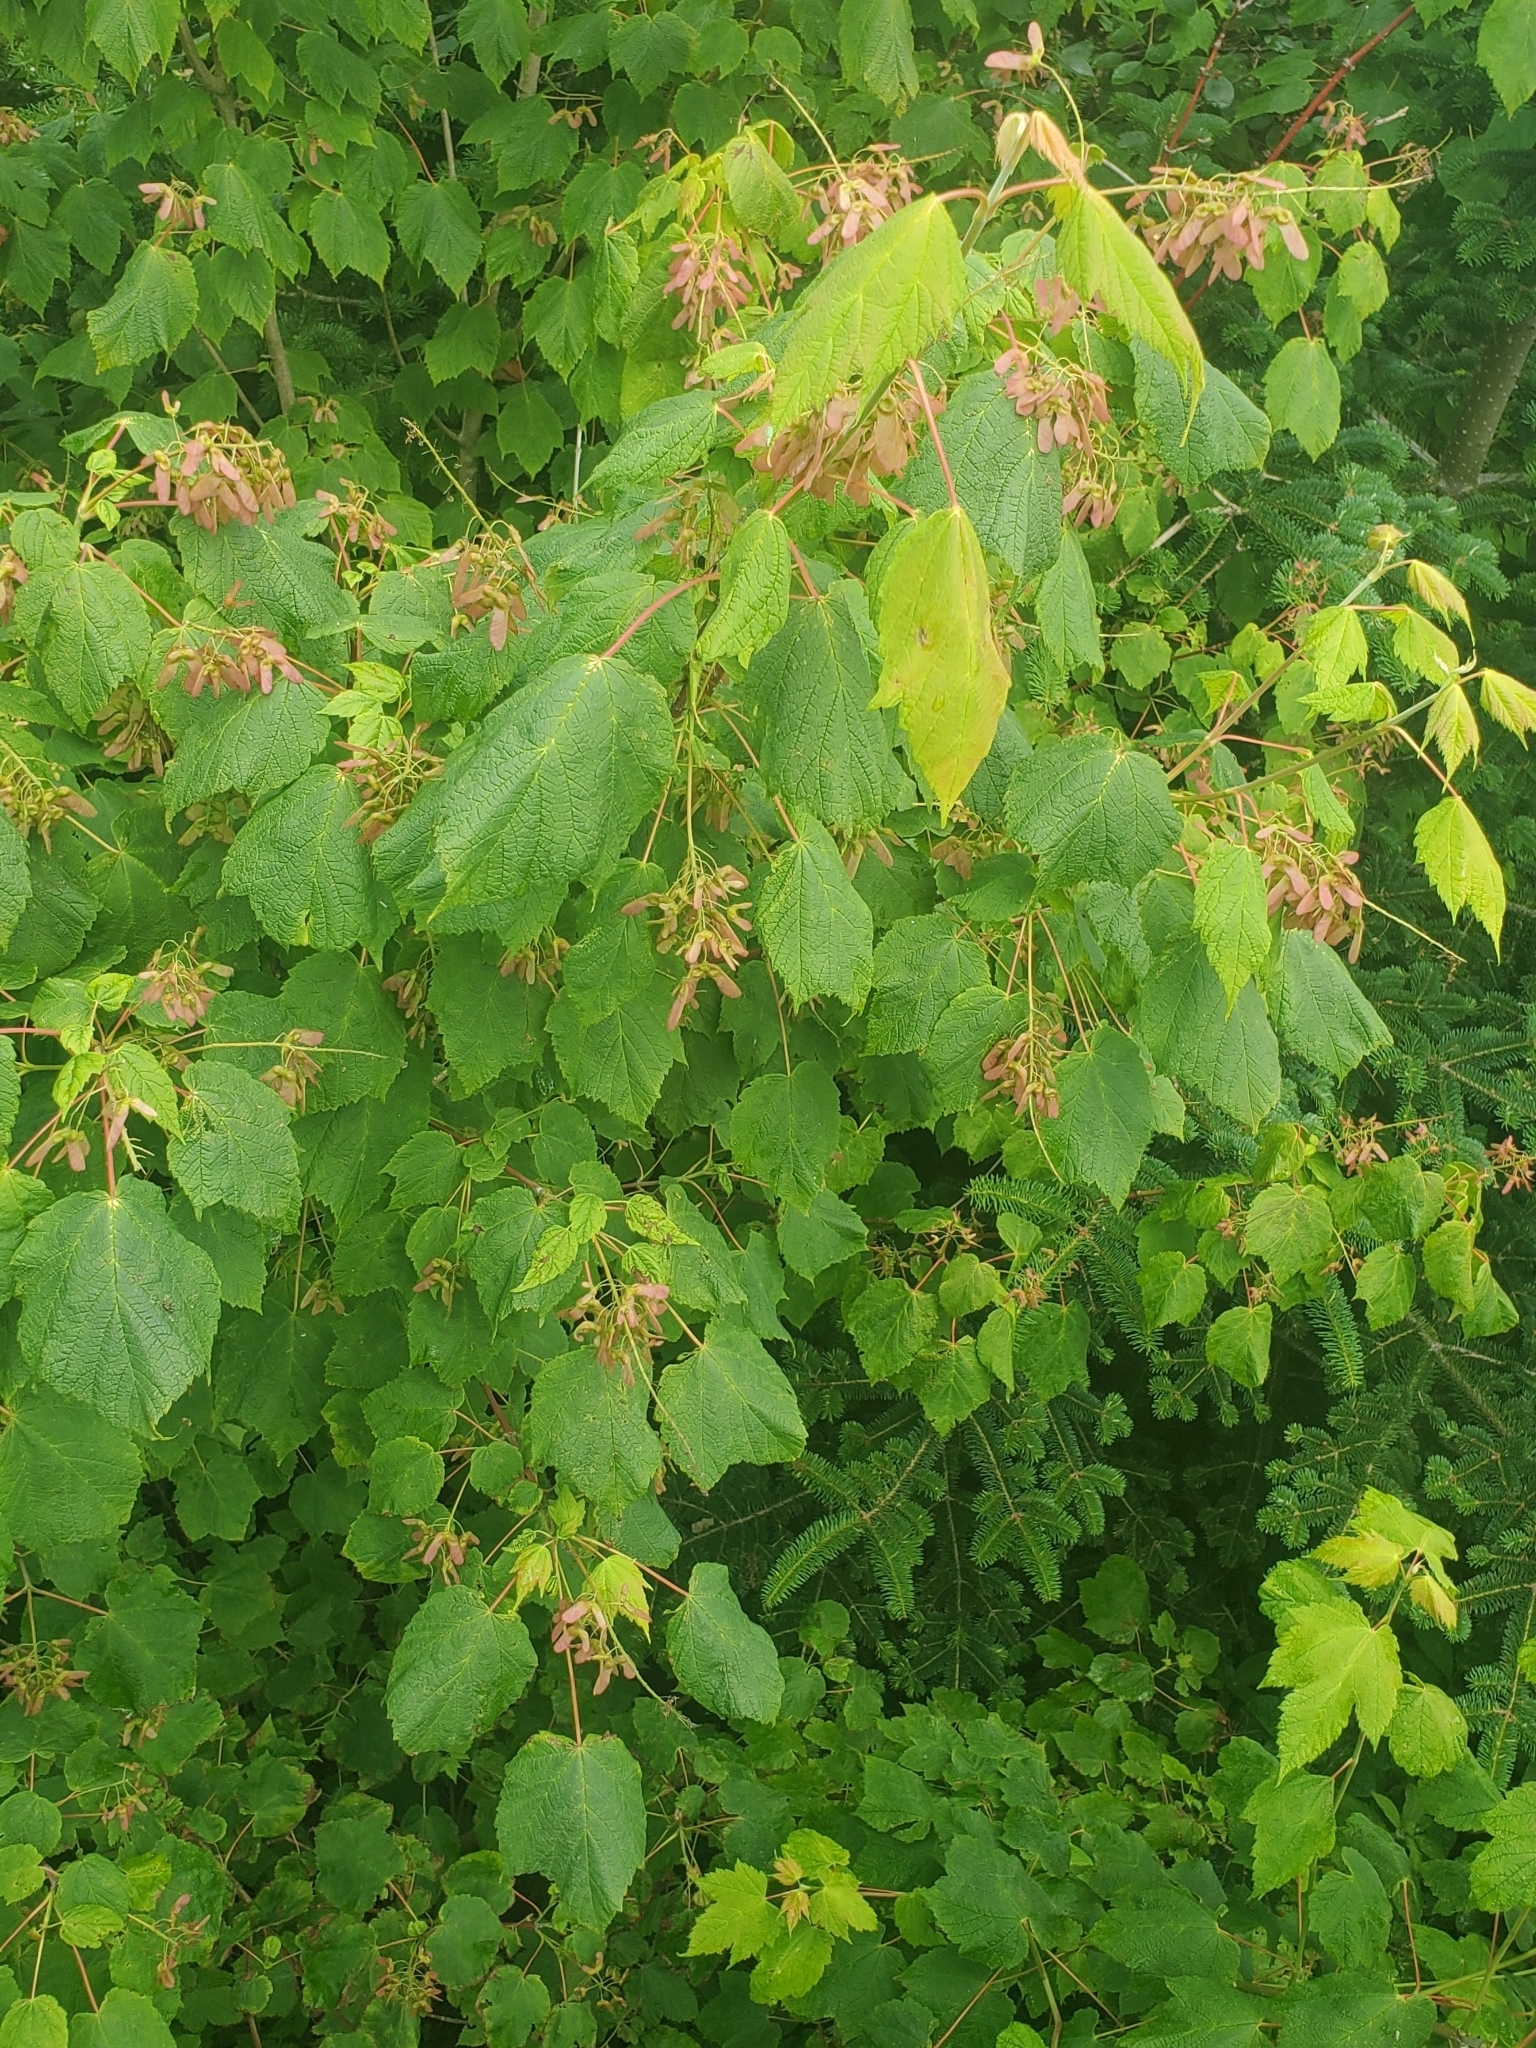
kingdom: Plantae
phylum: Tracheophyta
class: Magnoliopsida
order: Sapindales
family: Sapindaceae
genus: Acer
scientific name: Acer spicatum
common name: Mountain maple
